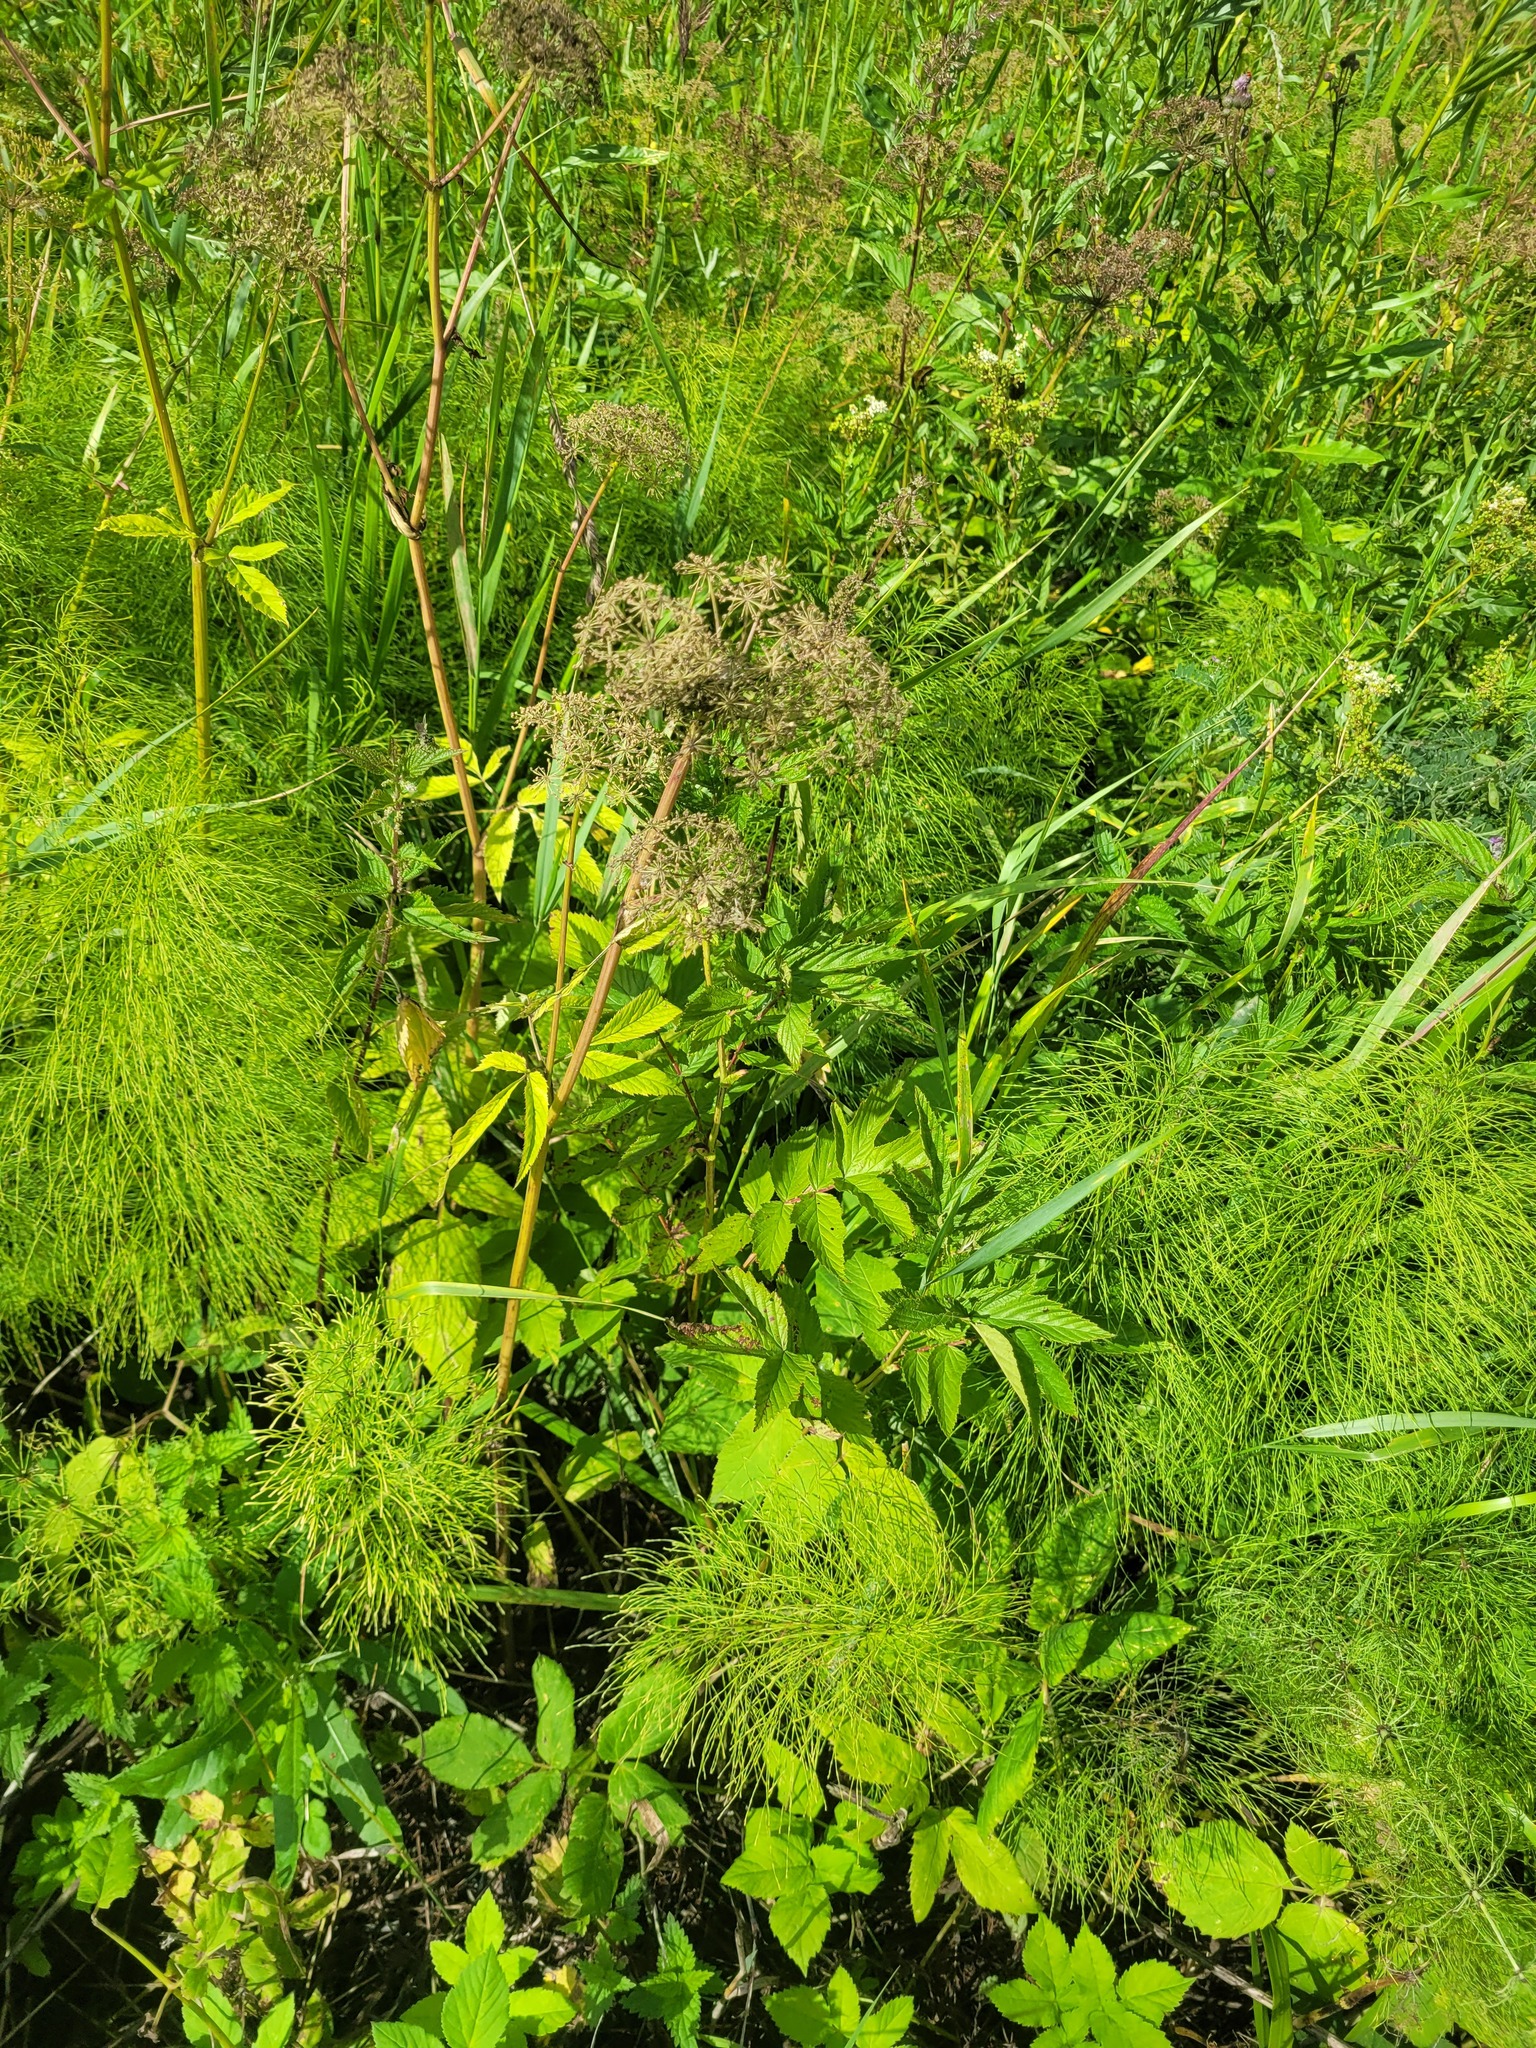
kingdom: Plantae
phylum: Tracheophyta
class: Magnoliopsida
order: Apiales
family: Apiaceae
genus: Aegopodium
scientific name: Aegopodium podagraria
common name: Ground-elder
